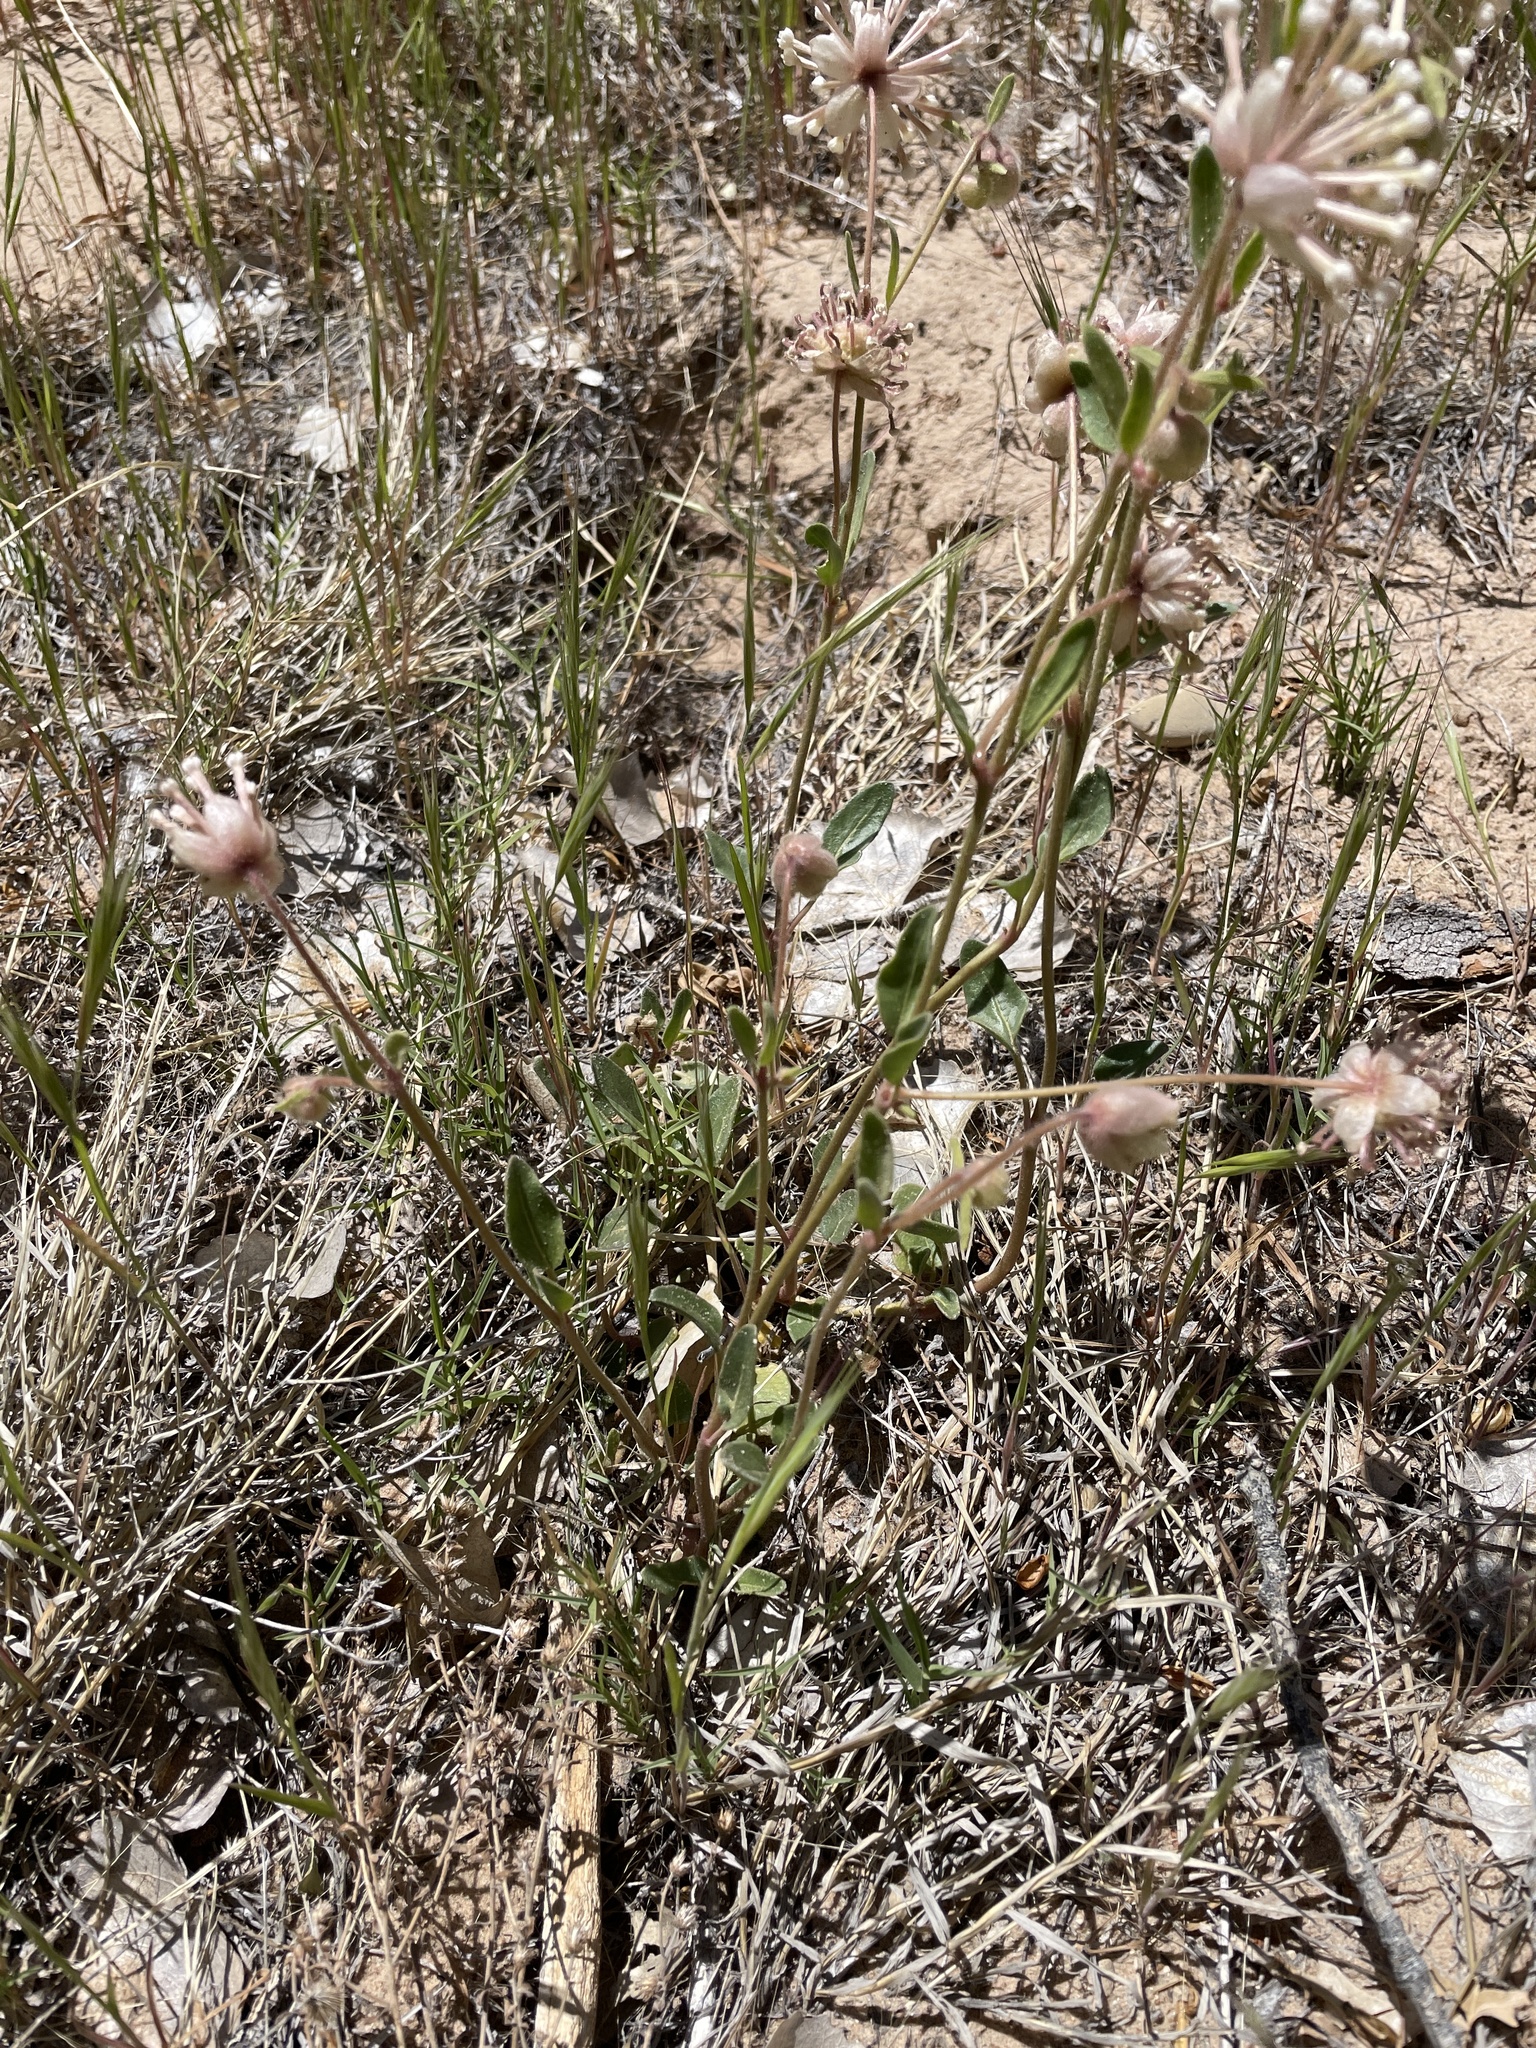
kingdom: Plantae
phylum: Tracheophyta
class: Magnoliopsida
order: Caryophyllales
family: Nyctaginaceae
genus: Abronia
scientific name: Abronia elliptica
